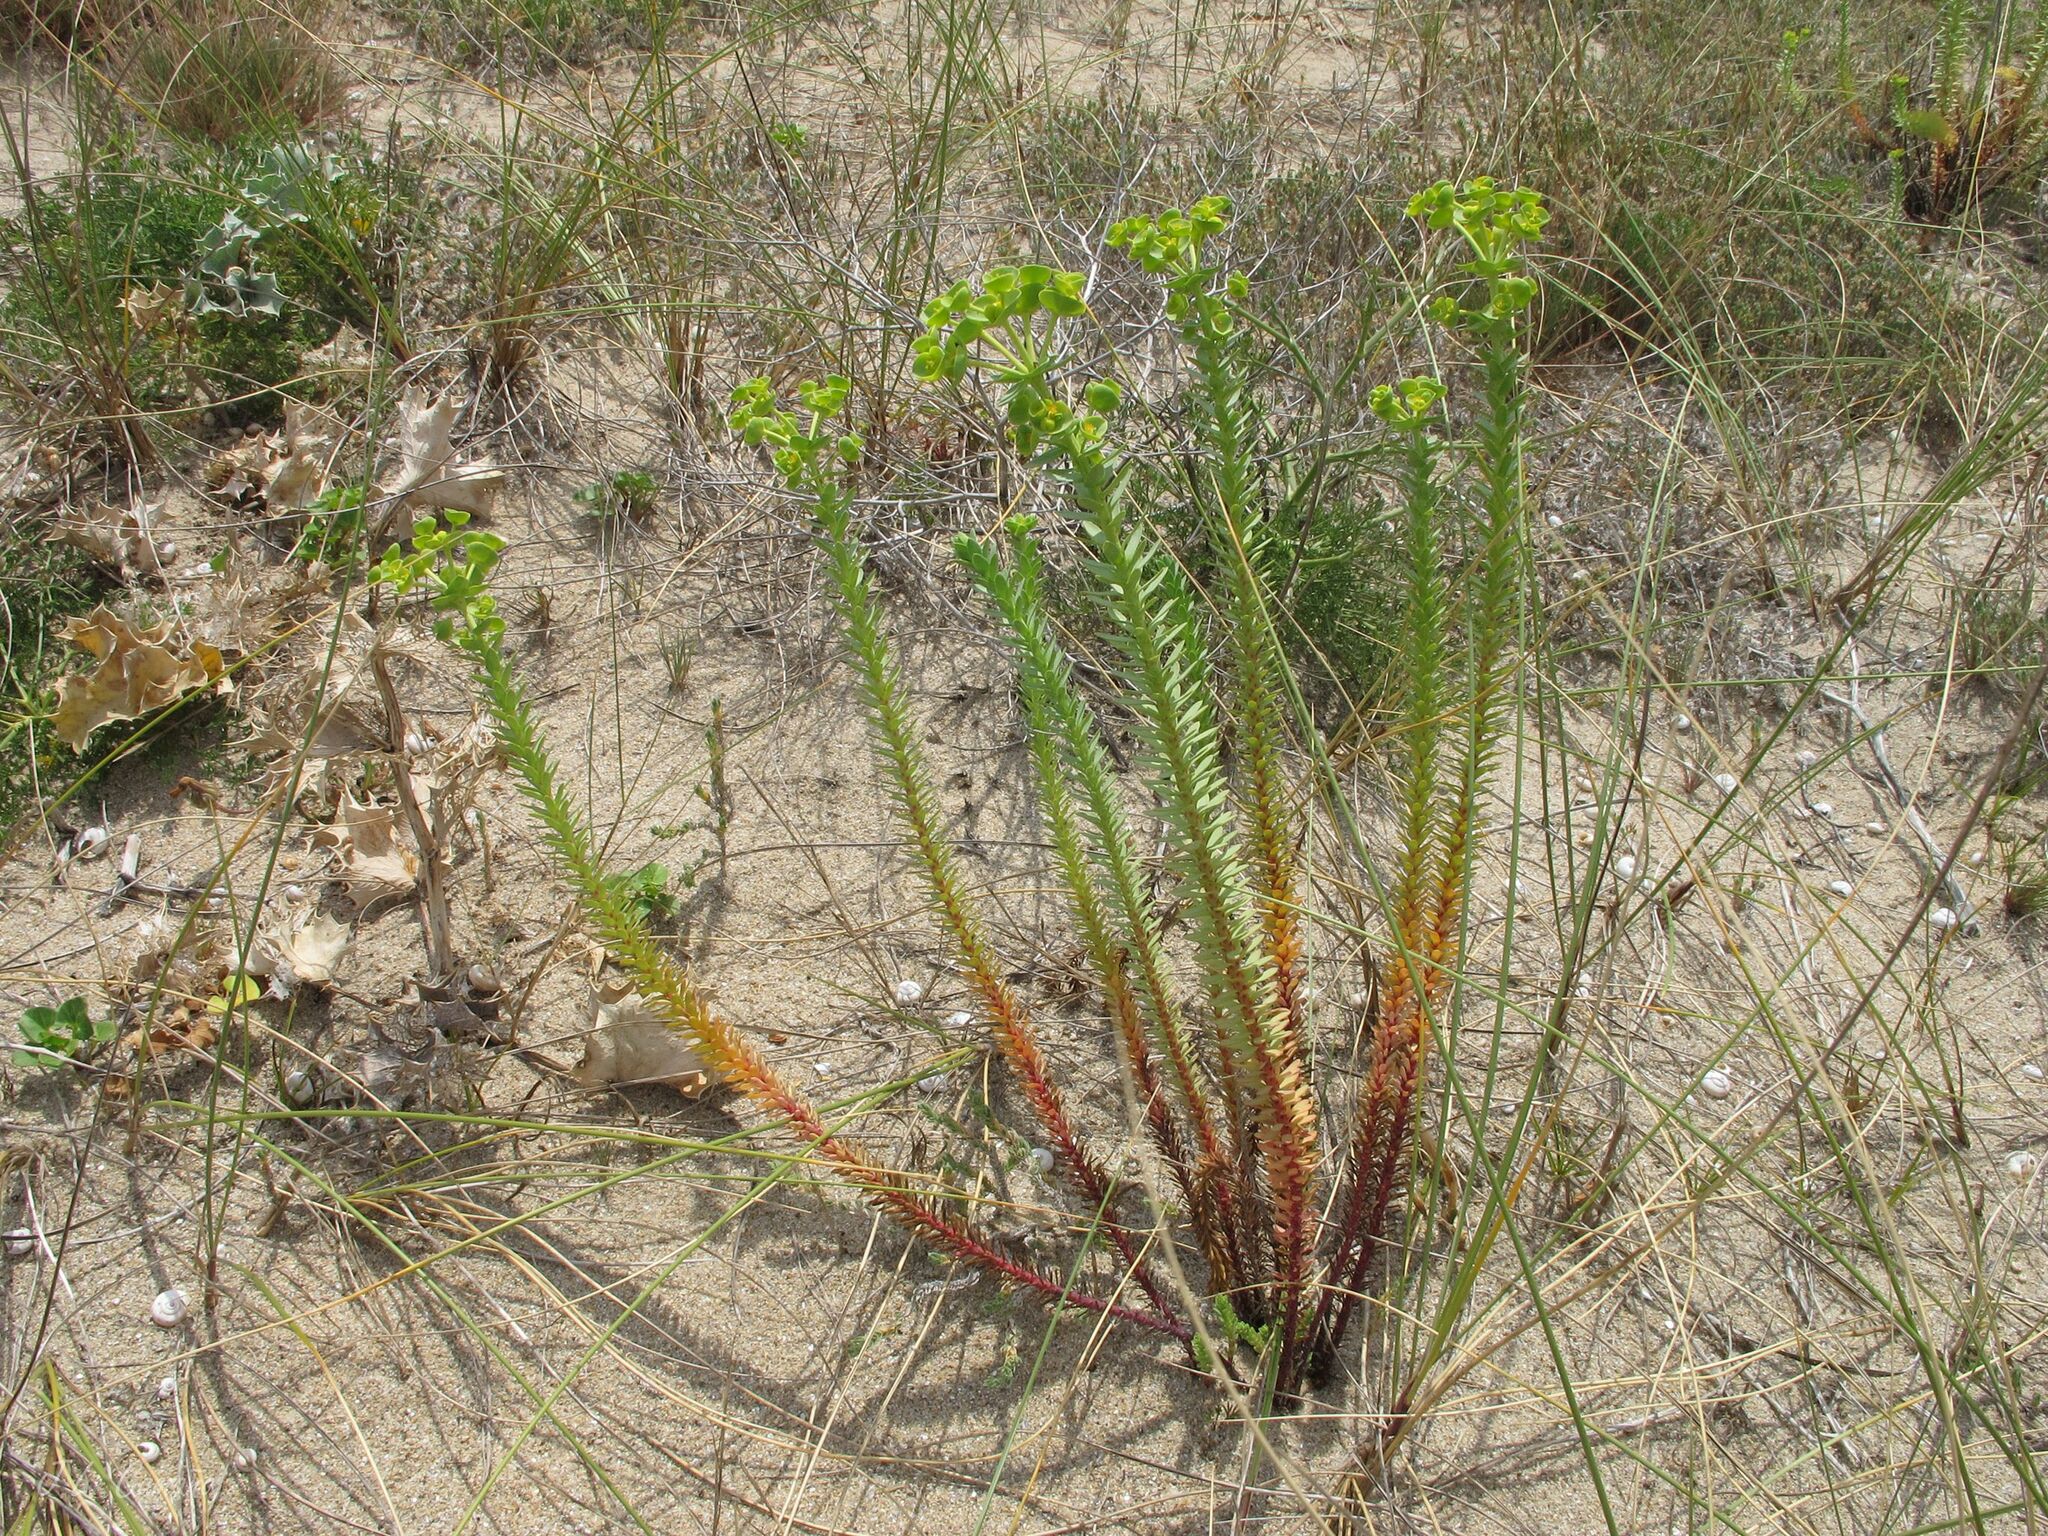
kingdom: Plantae
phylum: Tracheophyta
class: Magnoliopsida
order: Malpighiales
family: Euphorbiaceae
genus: Euphorbia
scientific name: Euphorbia paralias
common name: Sea spurge
